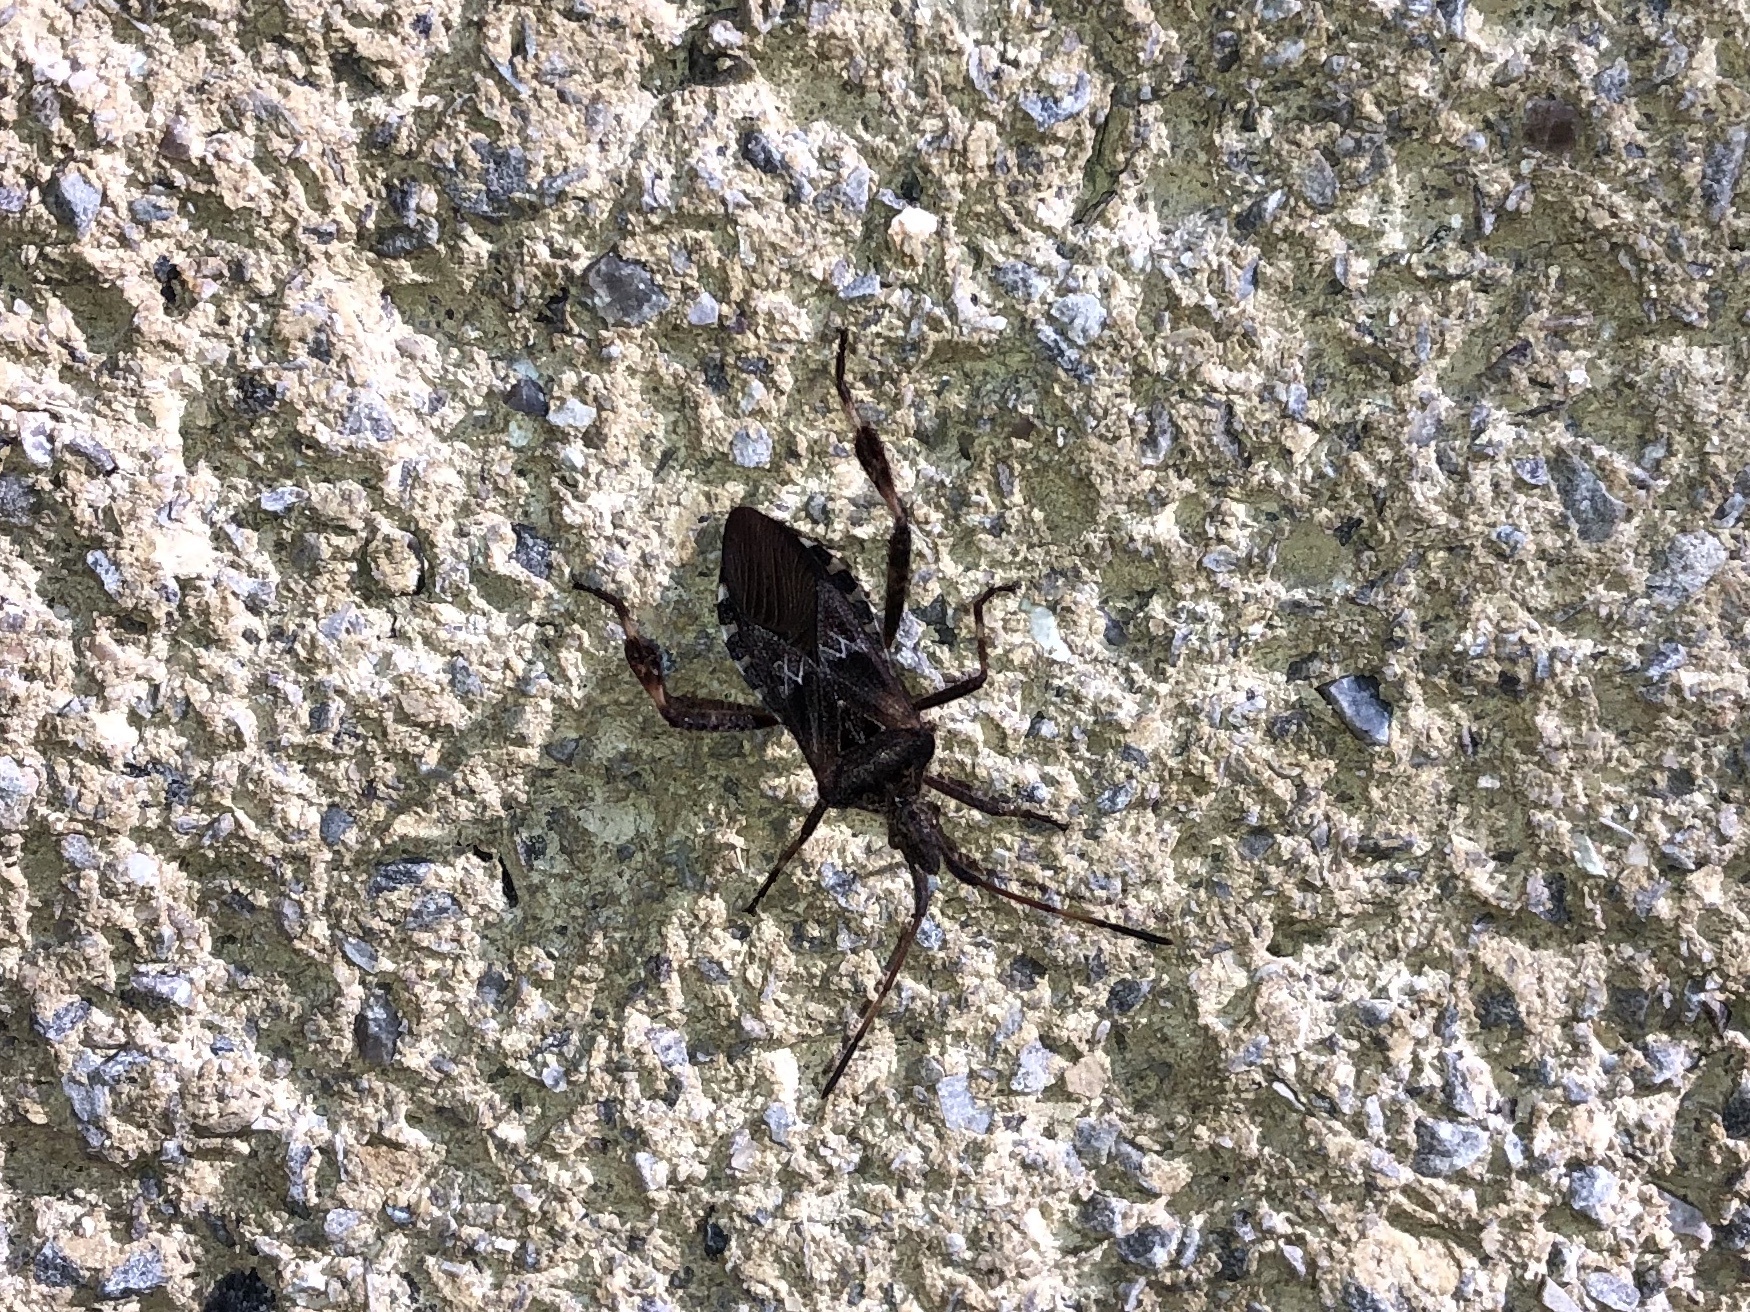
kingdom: Animalia
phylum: Arthropoda
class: Insecta
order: Hemiptera
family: Coreidae
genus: Leptoglossus
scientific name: Leptoglossus occidentalis
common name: Western conifer-seed bug
